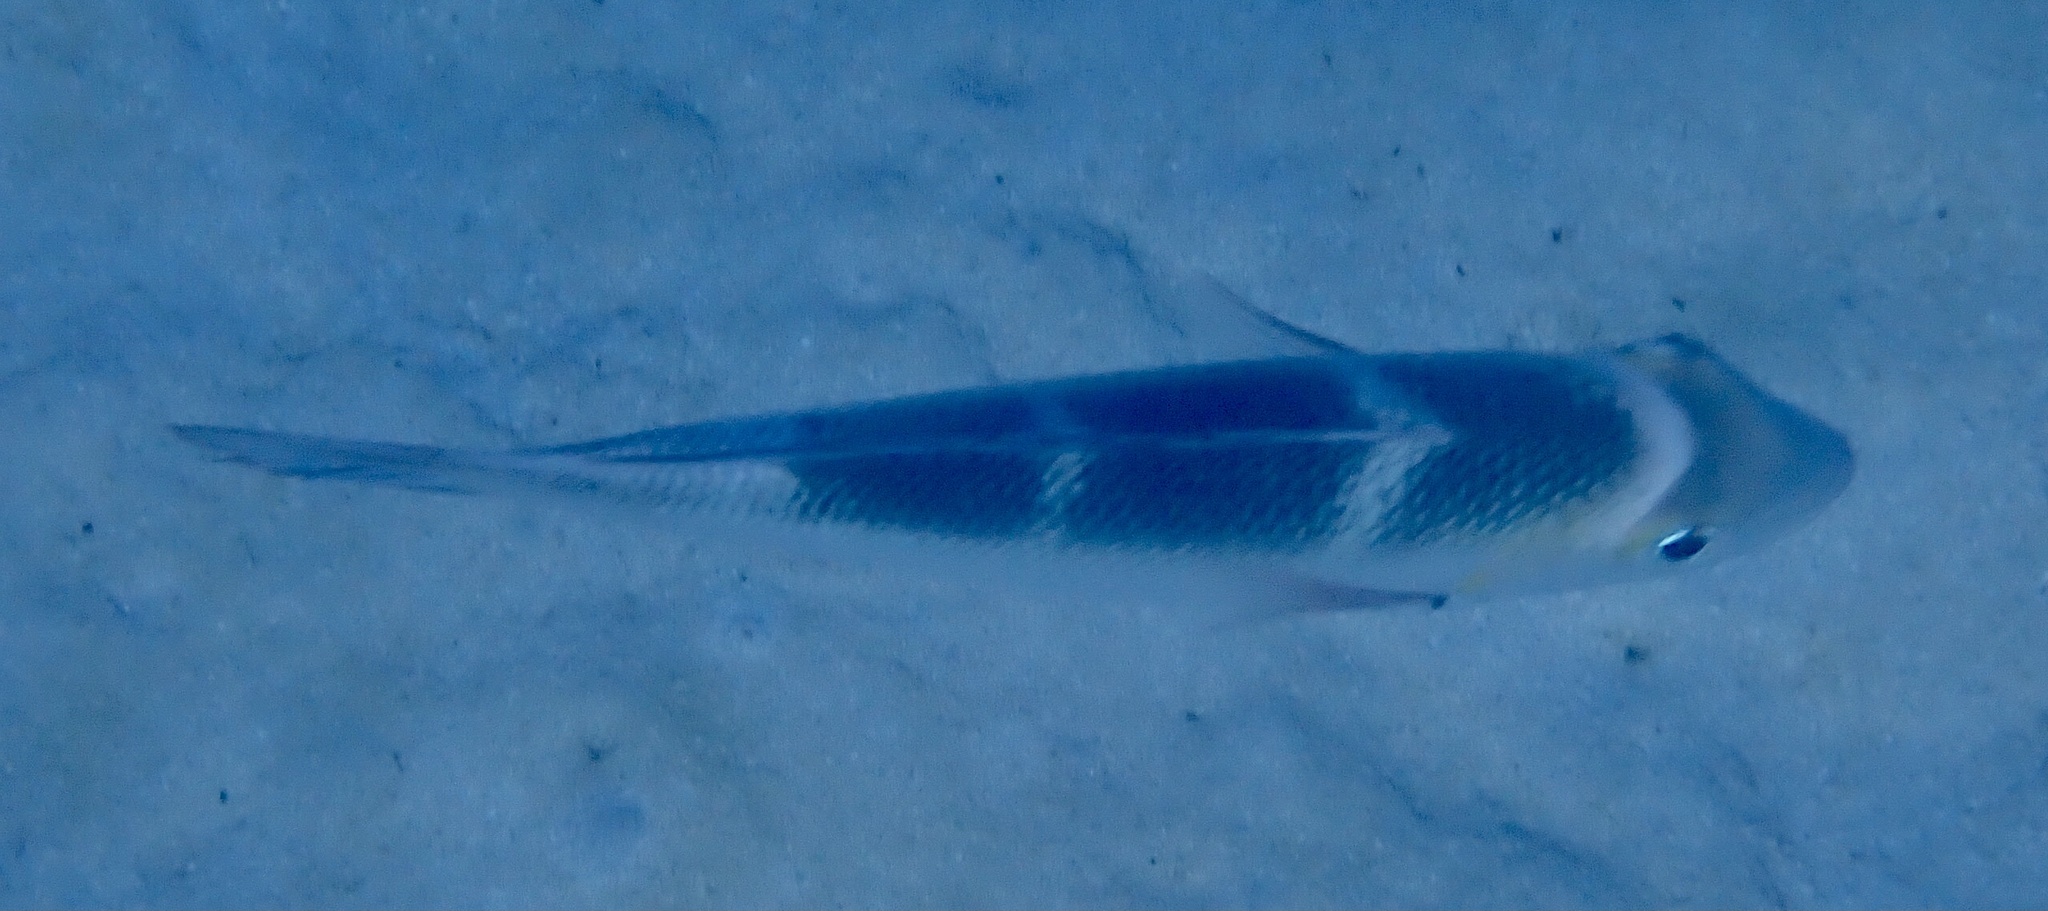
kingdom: Animalia
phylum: Chordata
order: Perciformes
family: Lethrinidae
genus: Monotaxis
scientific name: Monotaxis grandoculis
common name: Bigeye emperor
